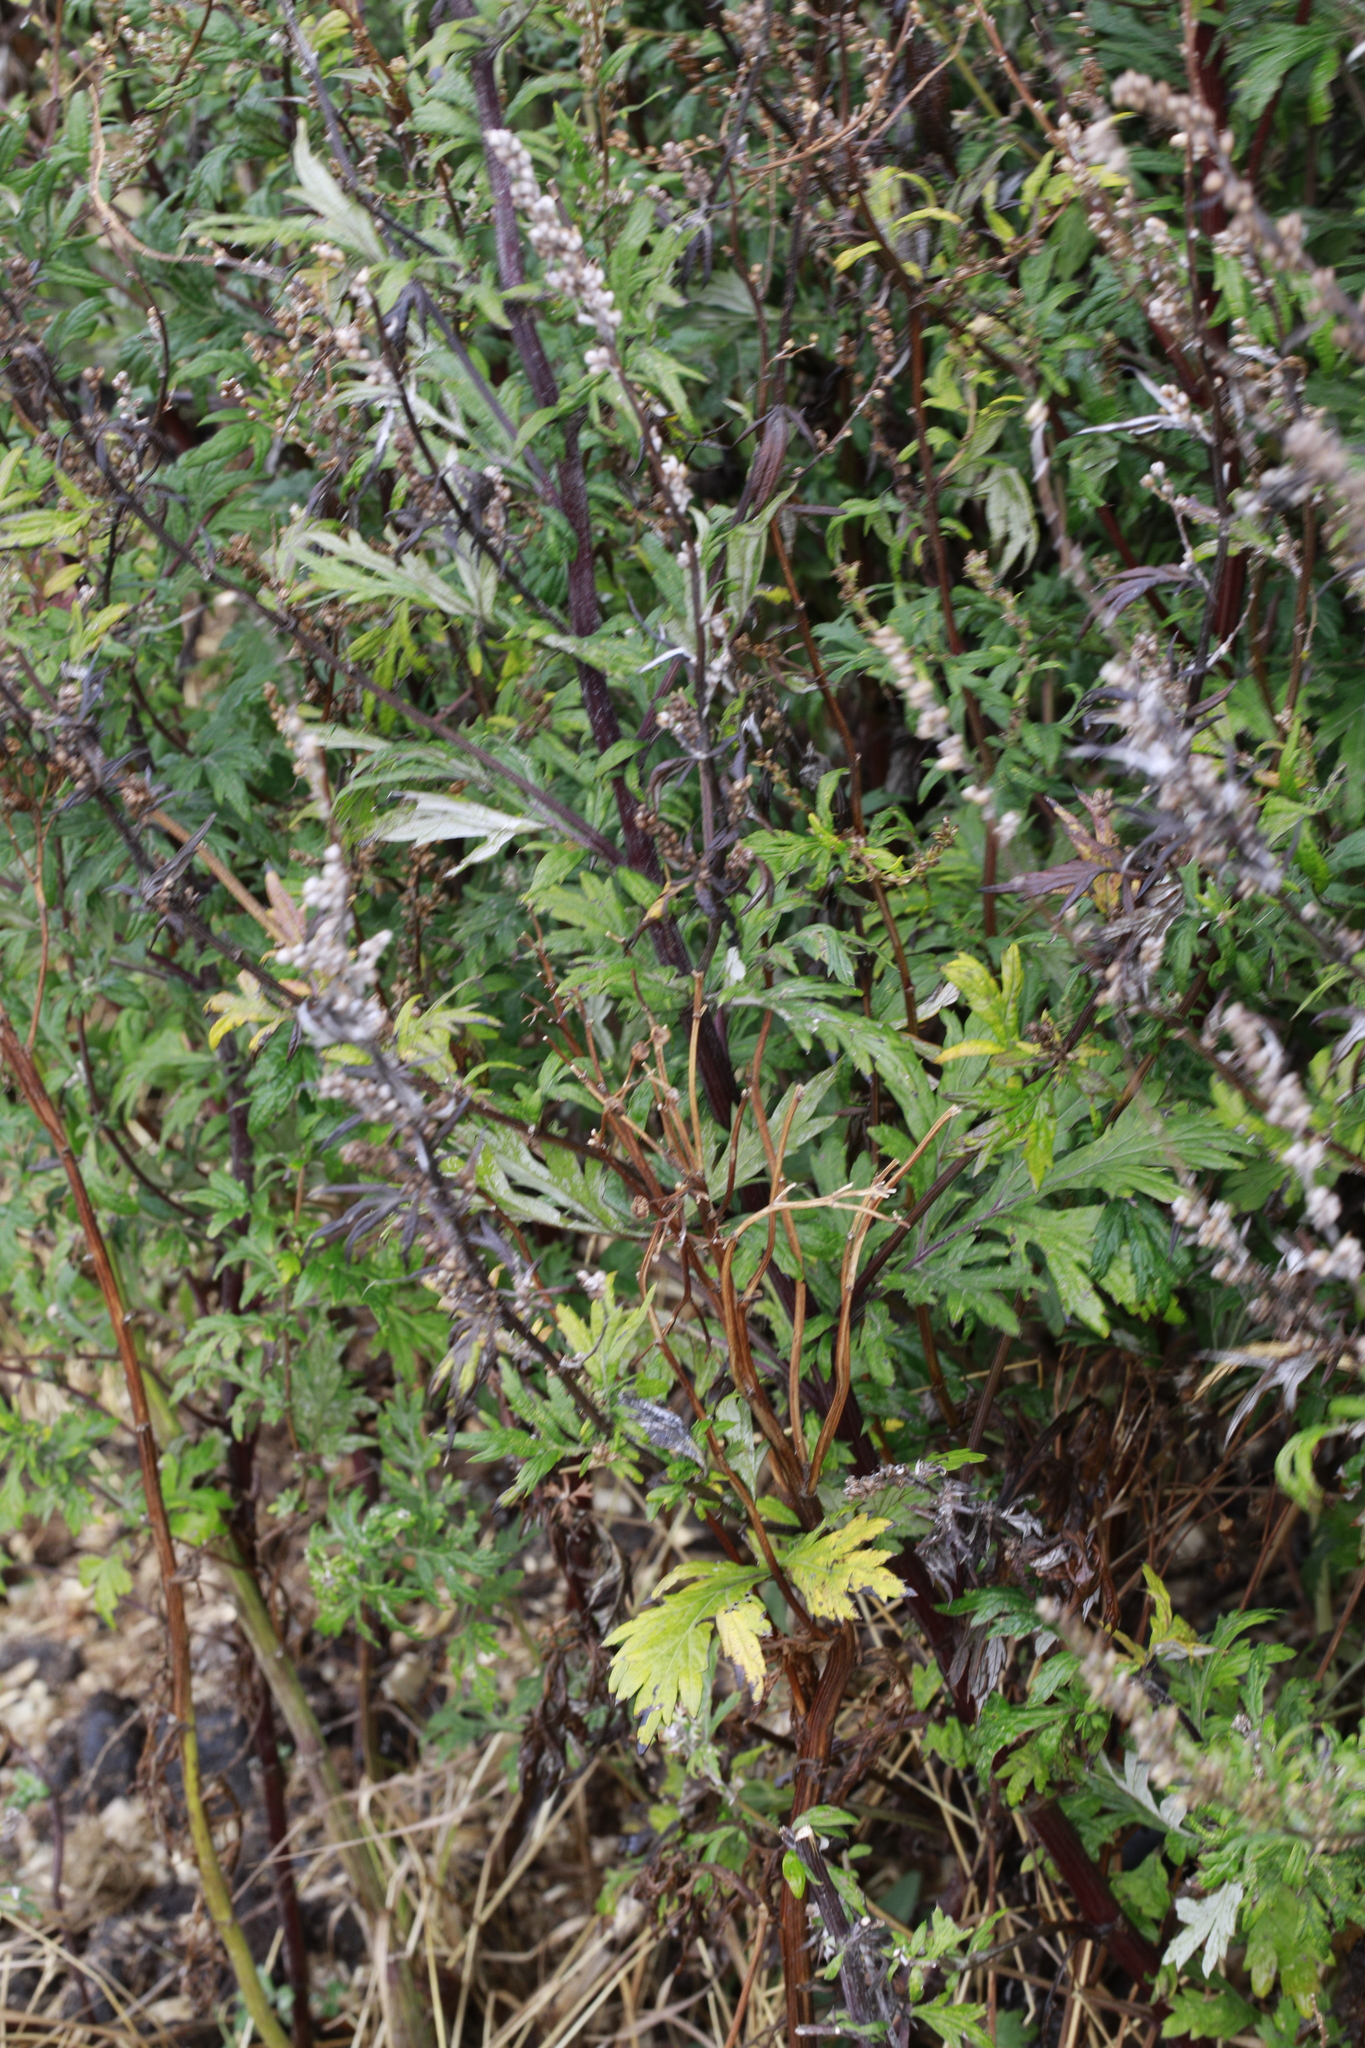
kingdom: Plantae
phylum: Tracheophyta
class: Magnoliopsida
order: Asterales
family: Asteraceae
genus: Artemisia
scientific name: Artemisia vulgaris
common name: Mugwort
